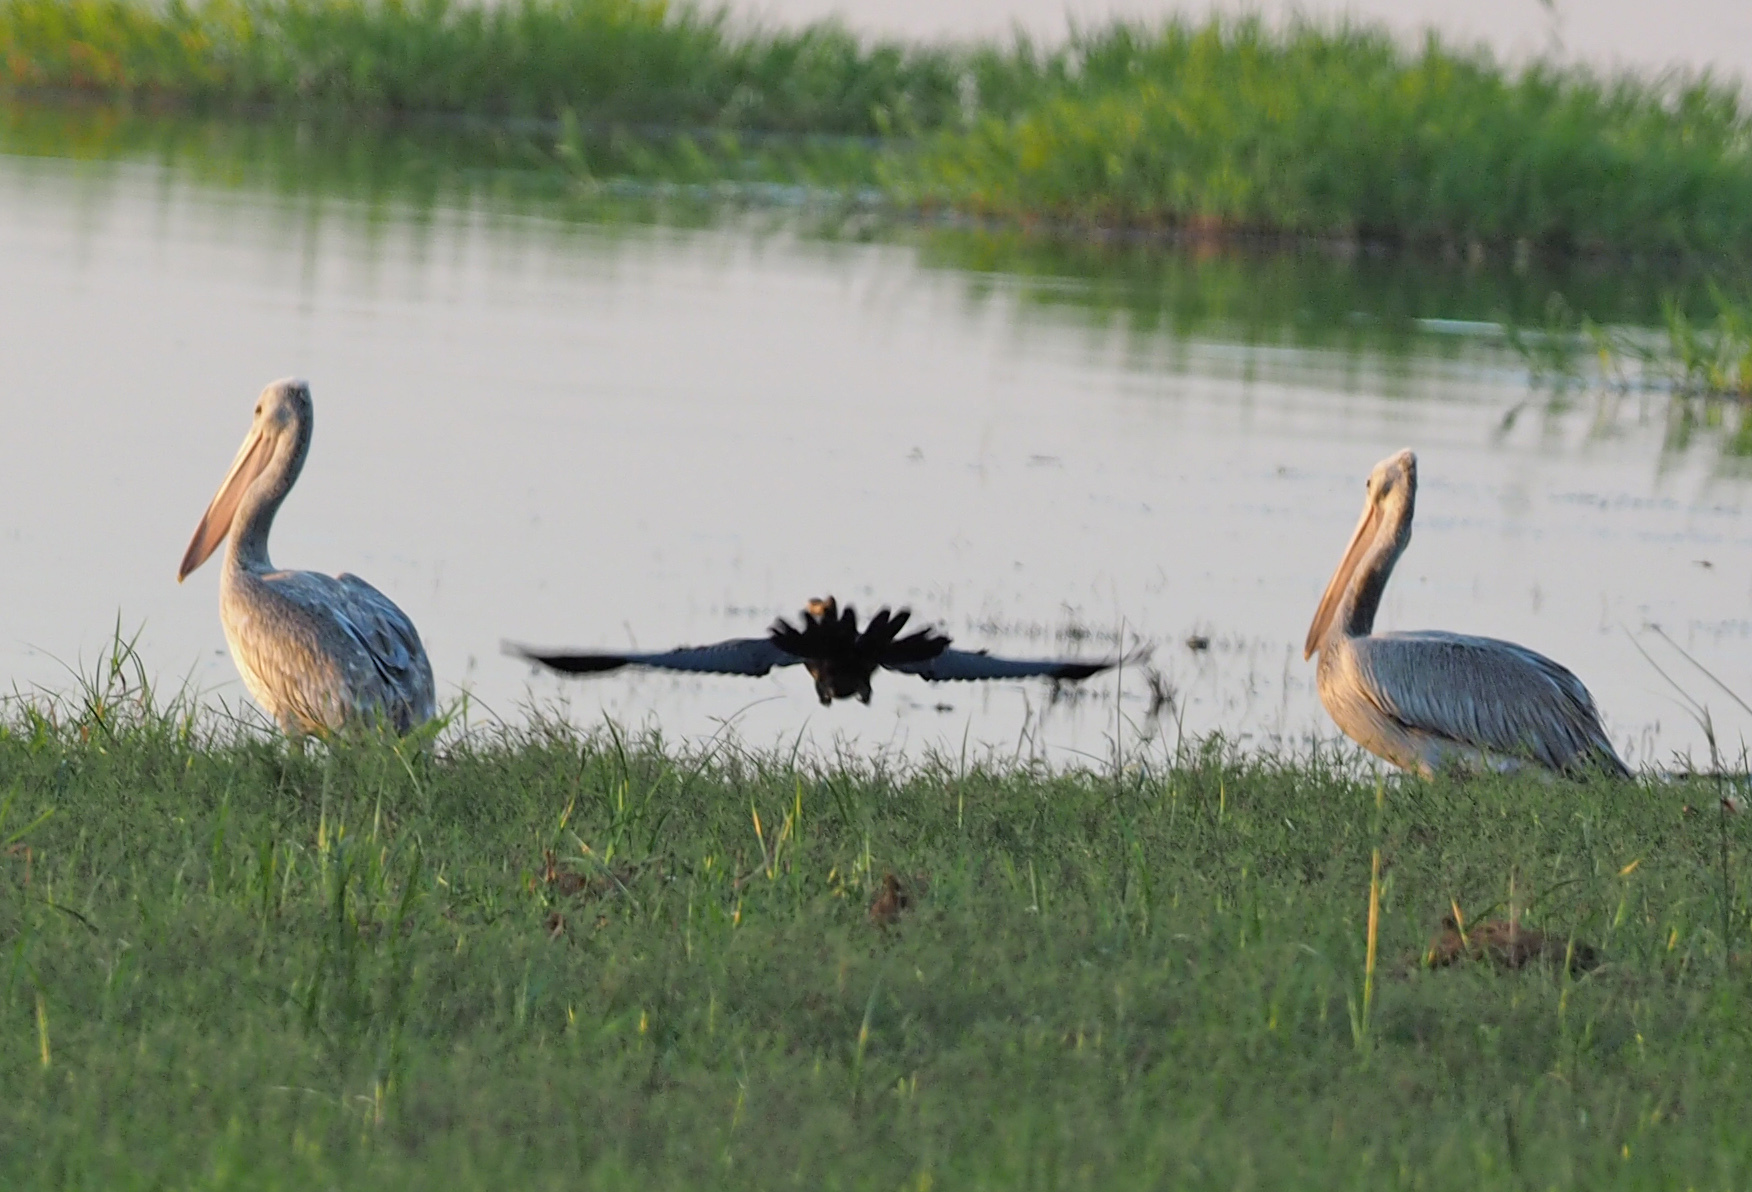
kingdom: Animalia
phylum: Chordata
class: Aves
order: Pelecaniformes
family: Pelecanidae
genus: Pelecanus
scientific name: Pelecanus onocrotalus
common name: Great white pelican
